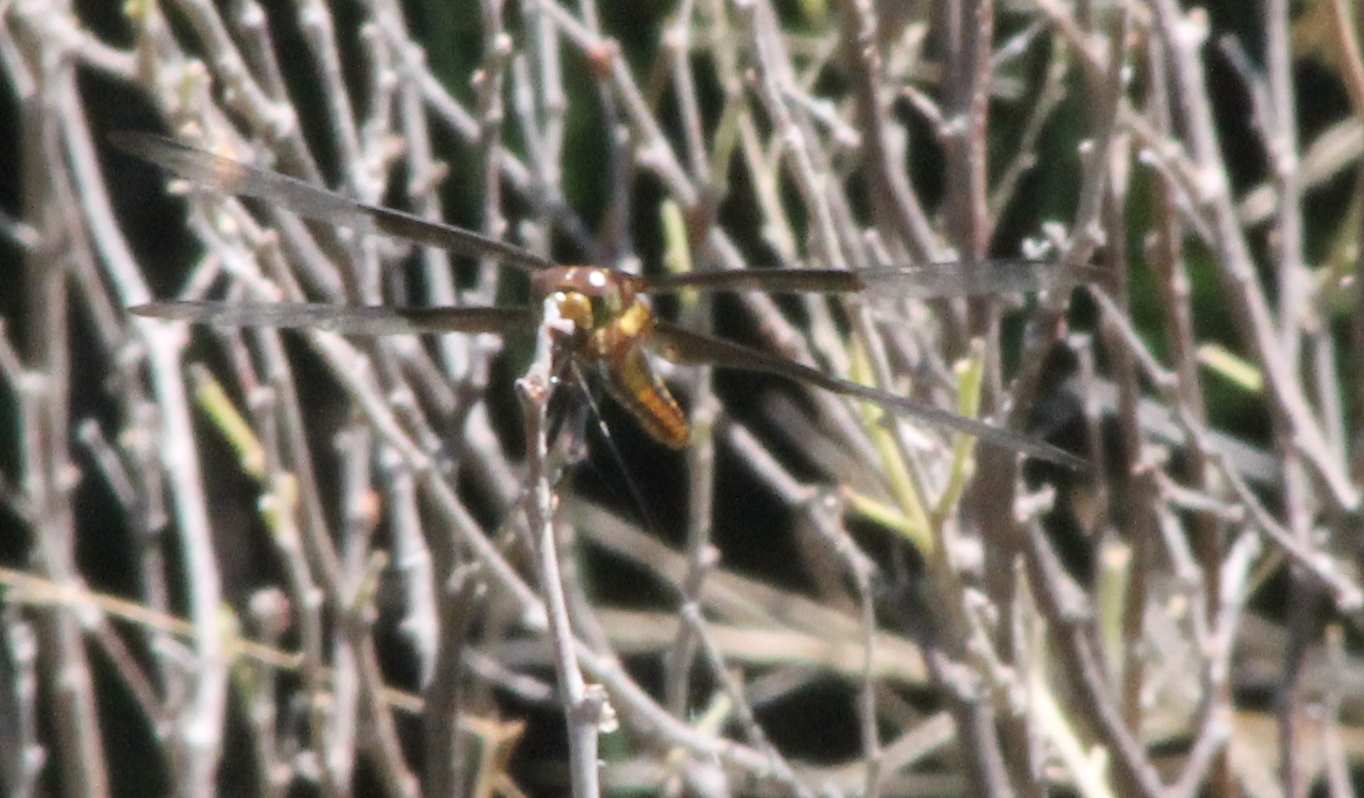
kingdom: Animalia
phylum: Arthropoda
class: Insecta
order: Odonata
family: Libellulidae
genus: Libellula
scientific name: Libellula luctuosa
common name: Widow skimmer
